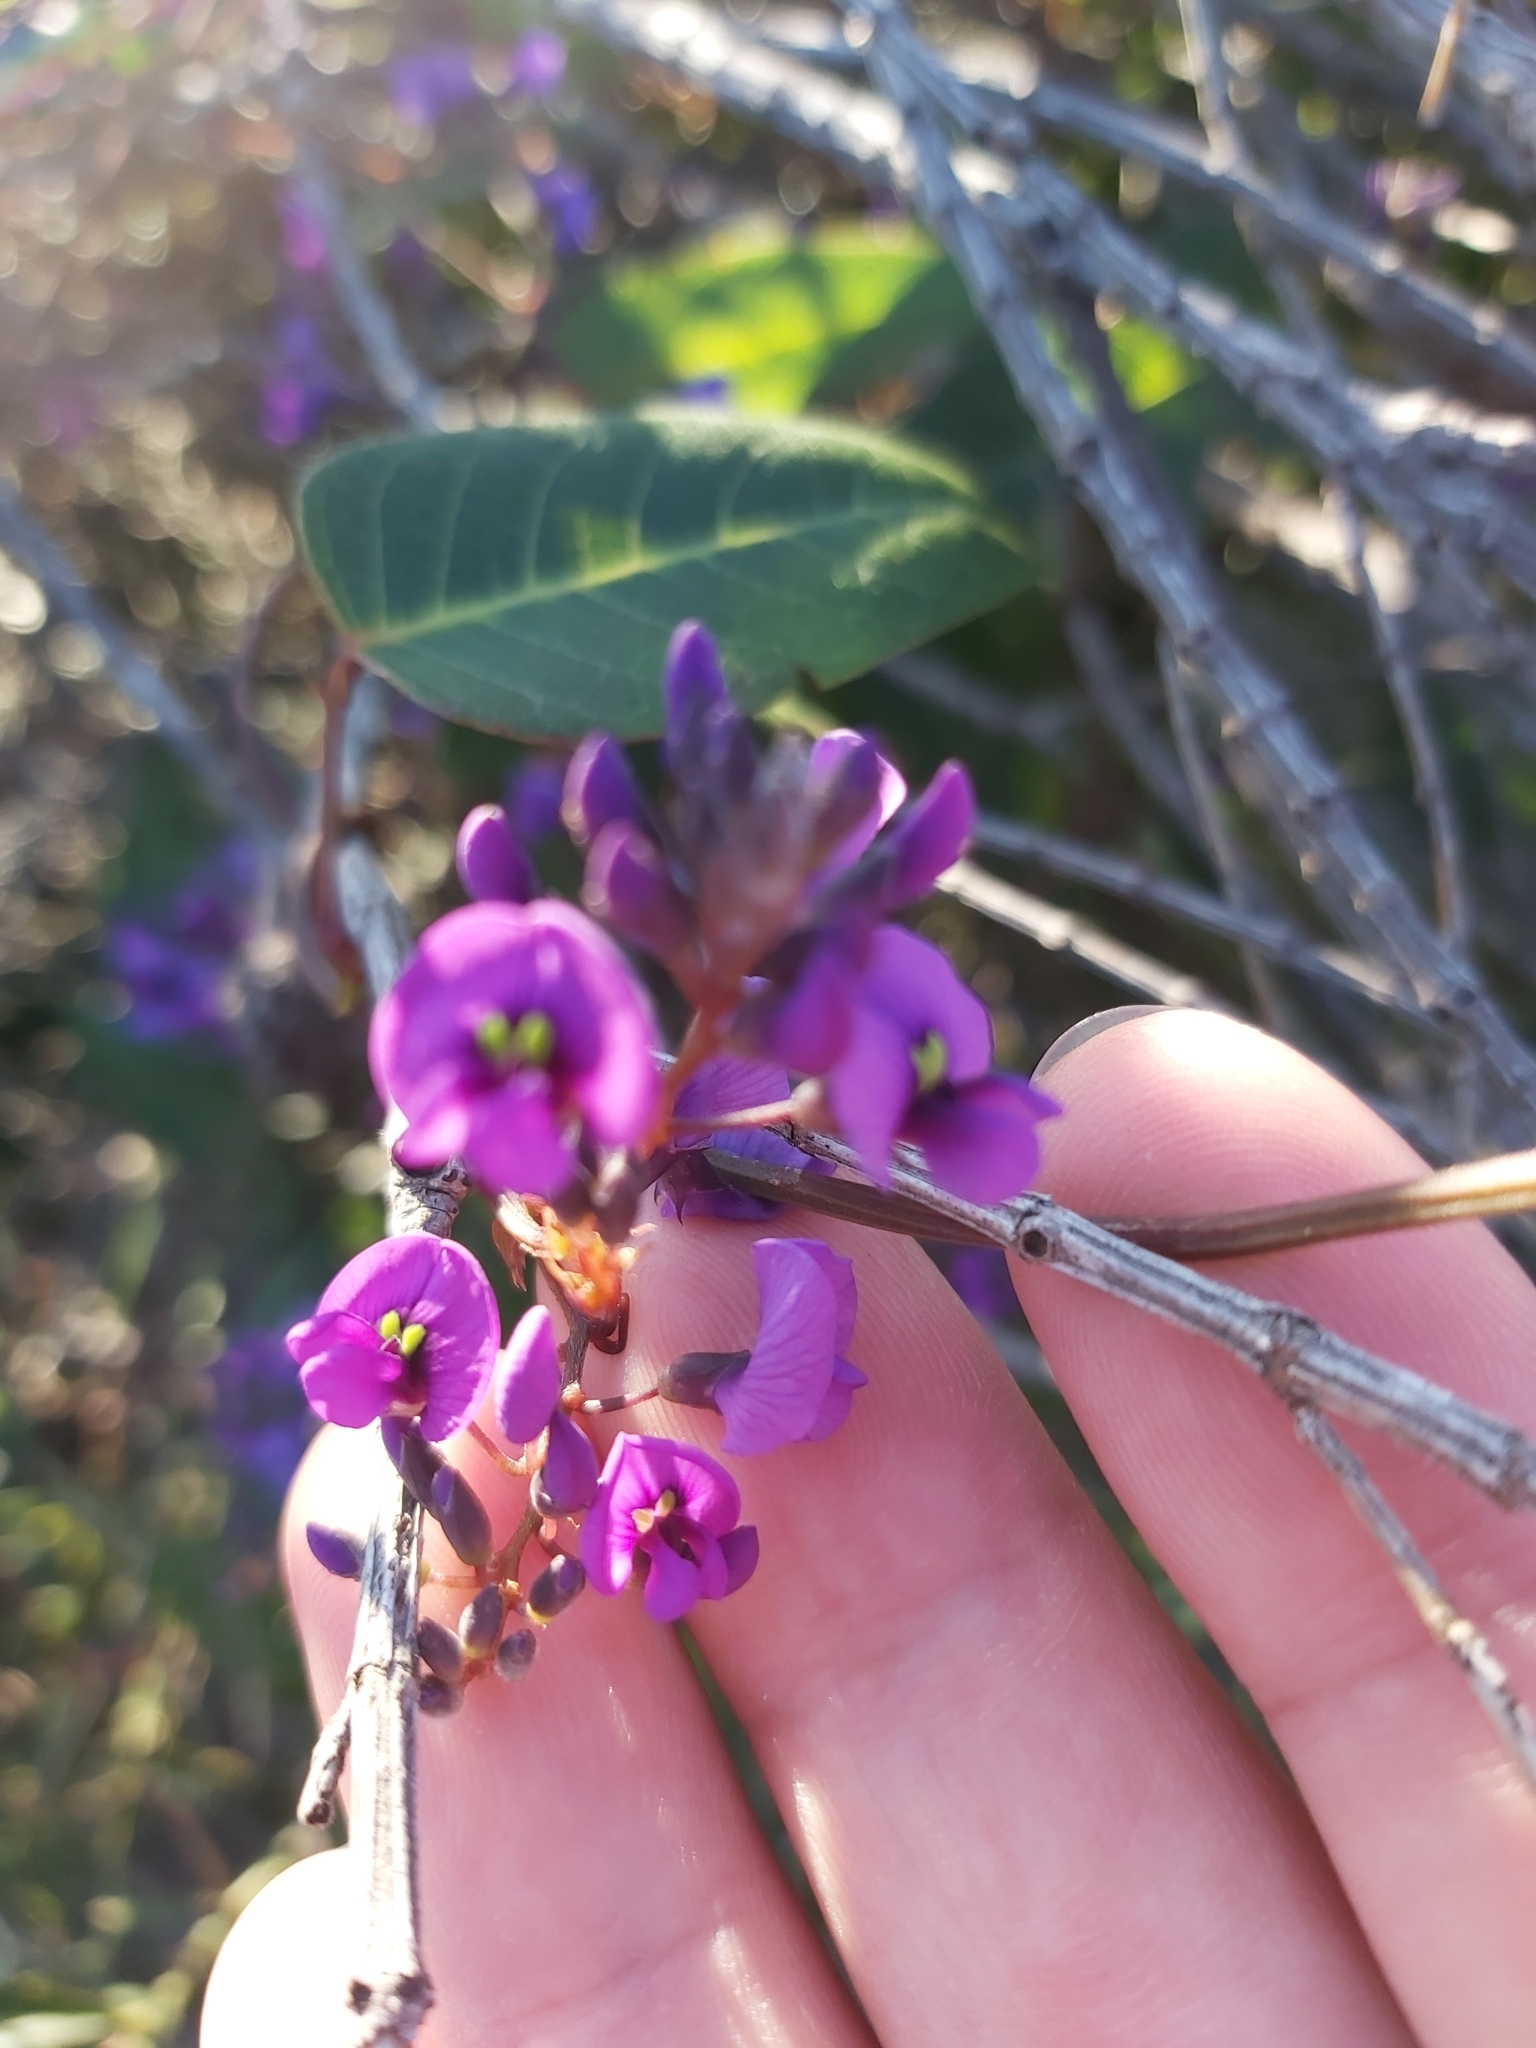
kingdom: Plantae
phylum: Tracheophyta
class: Magnoliopsida
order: Fabales
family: Fabaceae
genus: Hardenbergia
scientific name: Hardenbergia violacea
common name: Coral-pea
